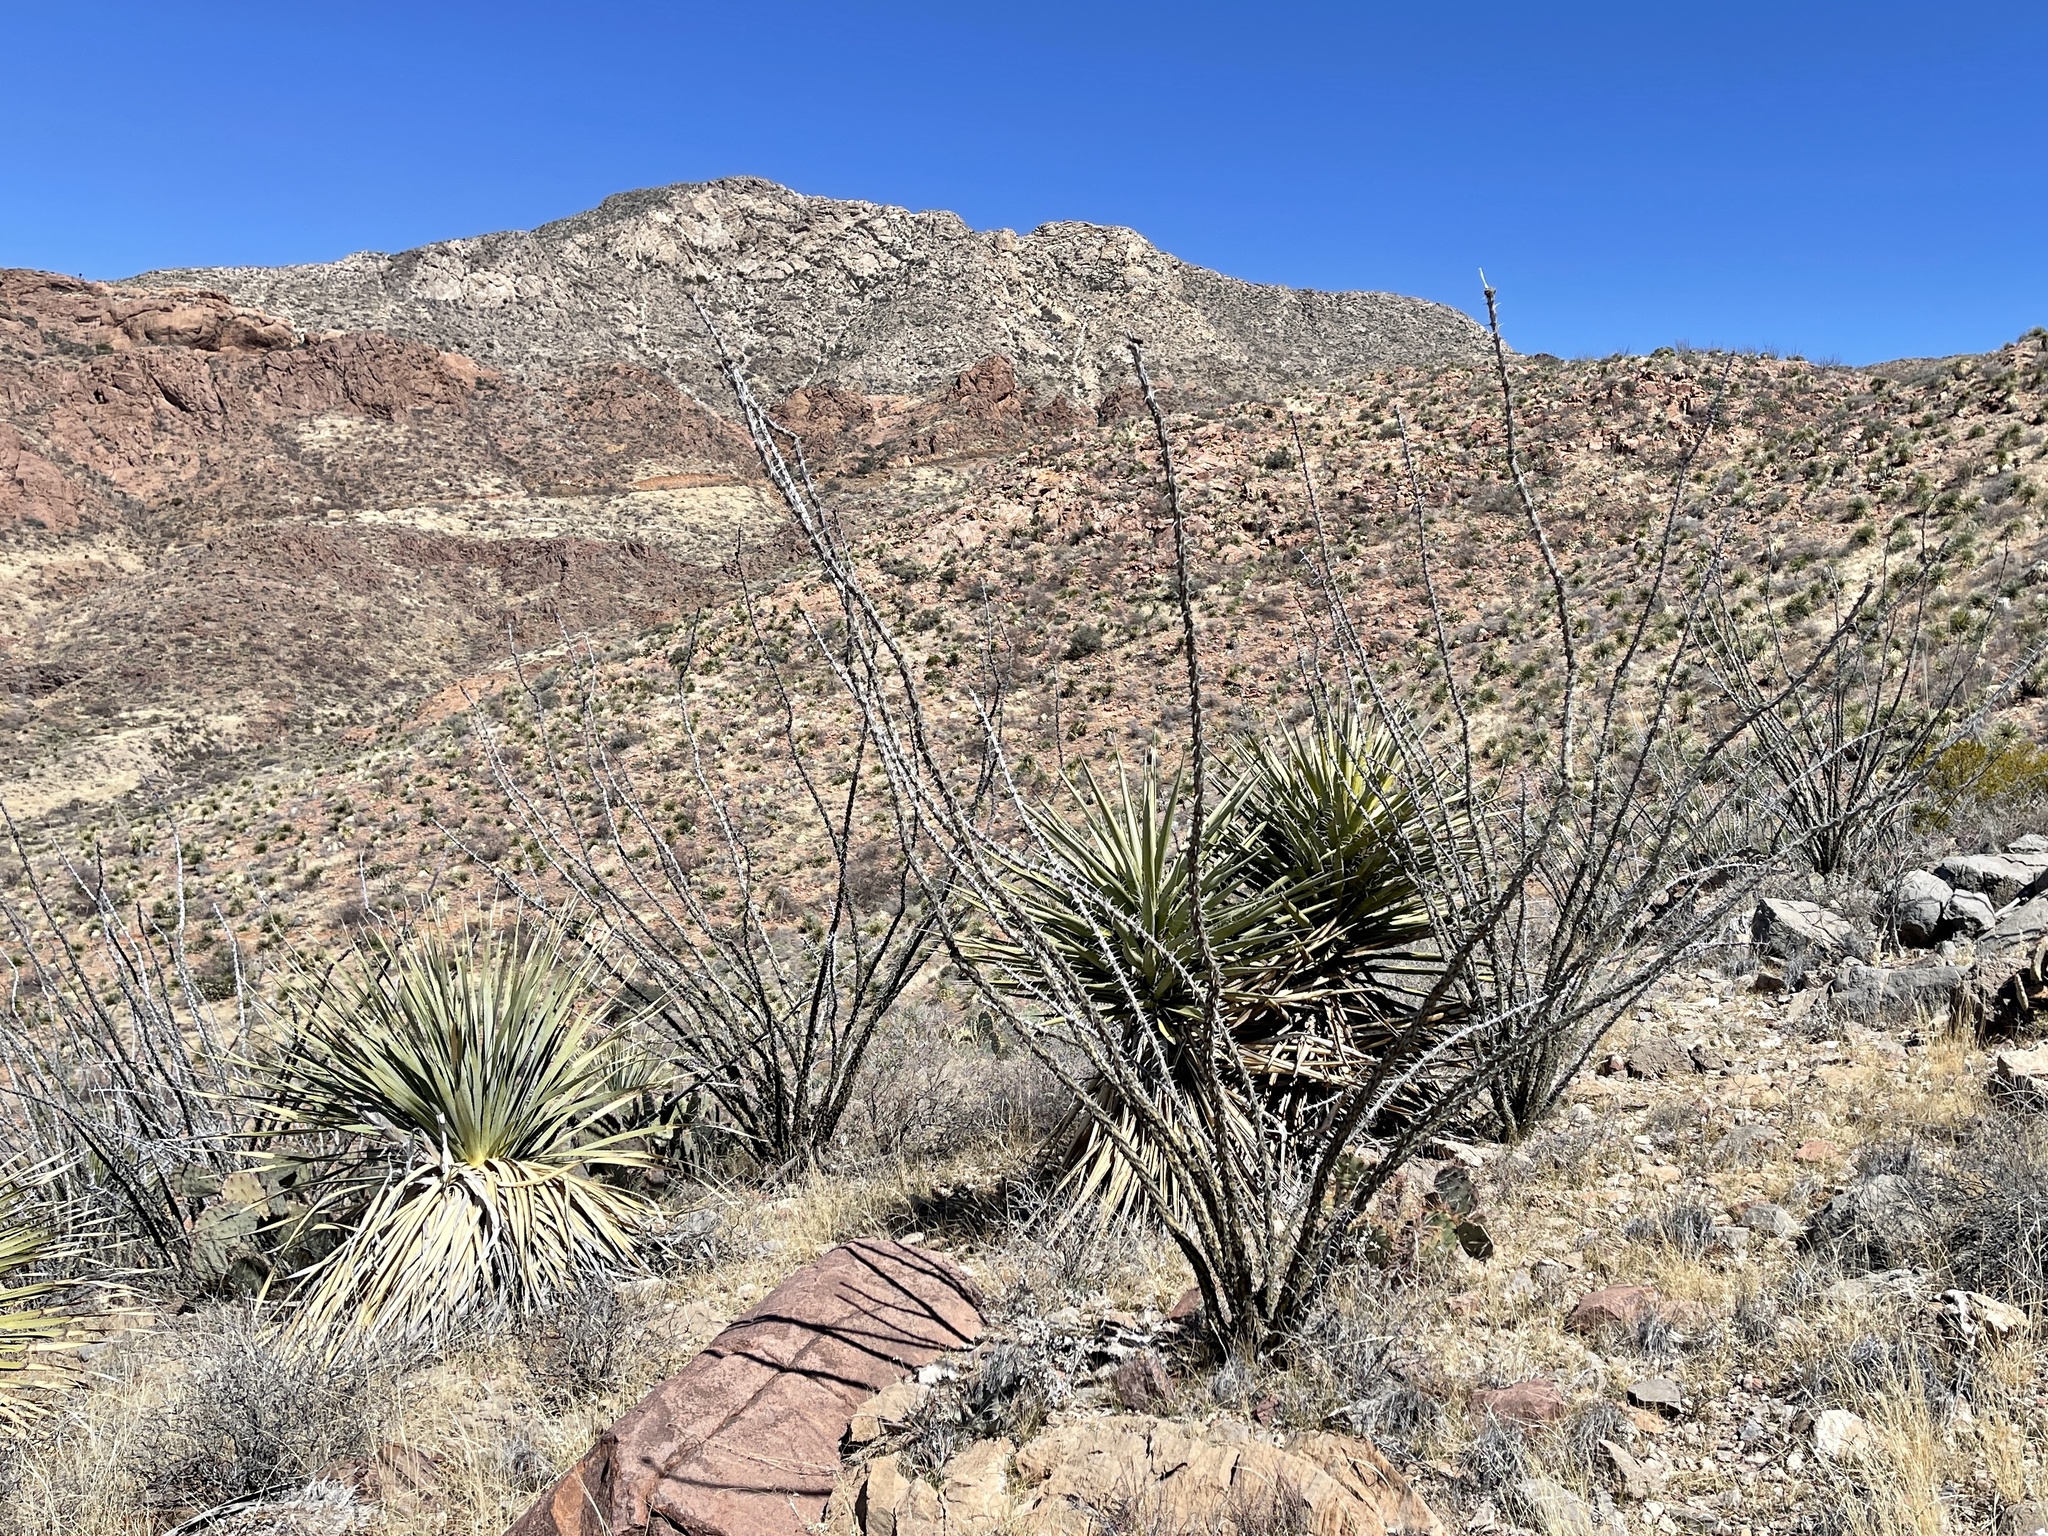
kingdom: Plantae
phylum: Tracheophyta
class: Magnoliopsida
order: Ericales
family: Fouquieriaceae
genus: Fouquieria
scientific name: Fouquieria splendens
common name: Vine-cactus
